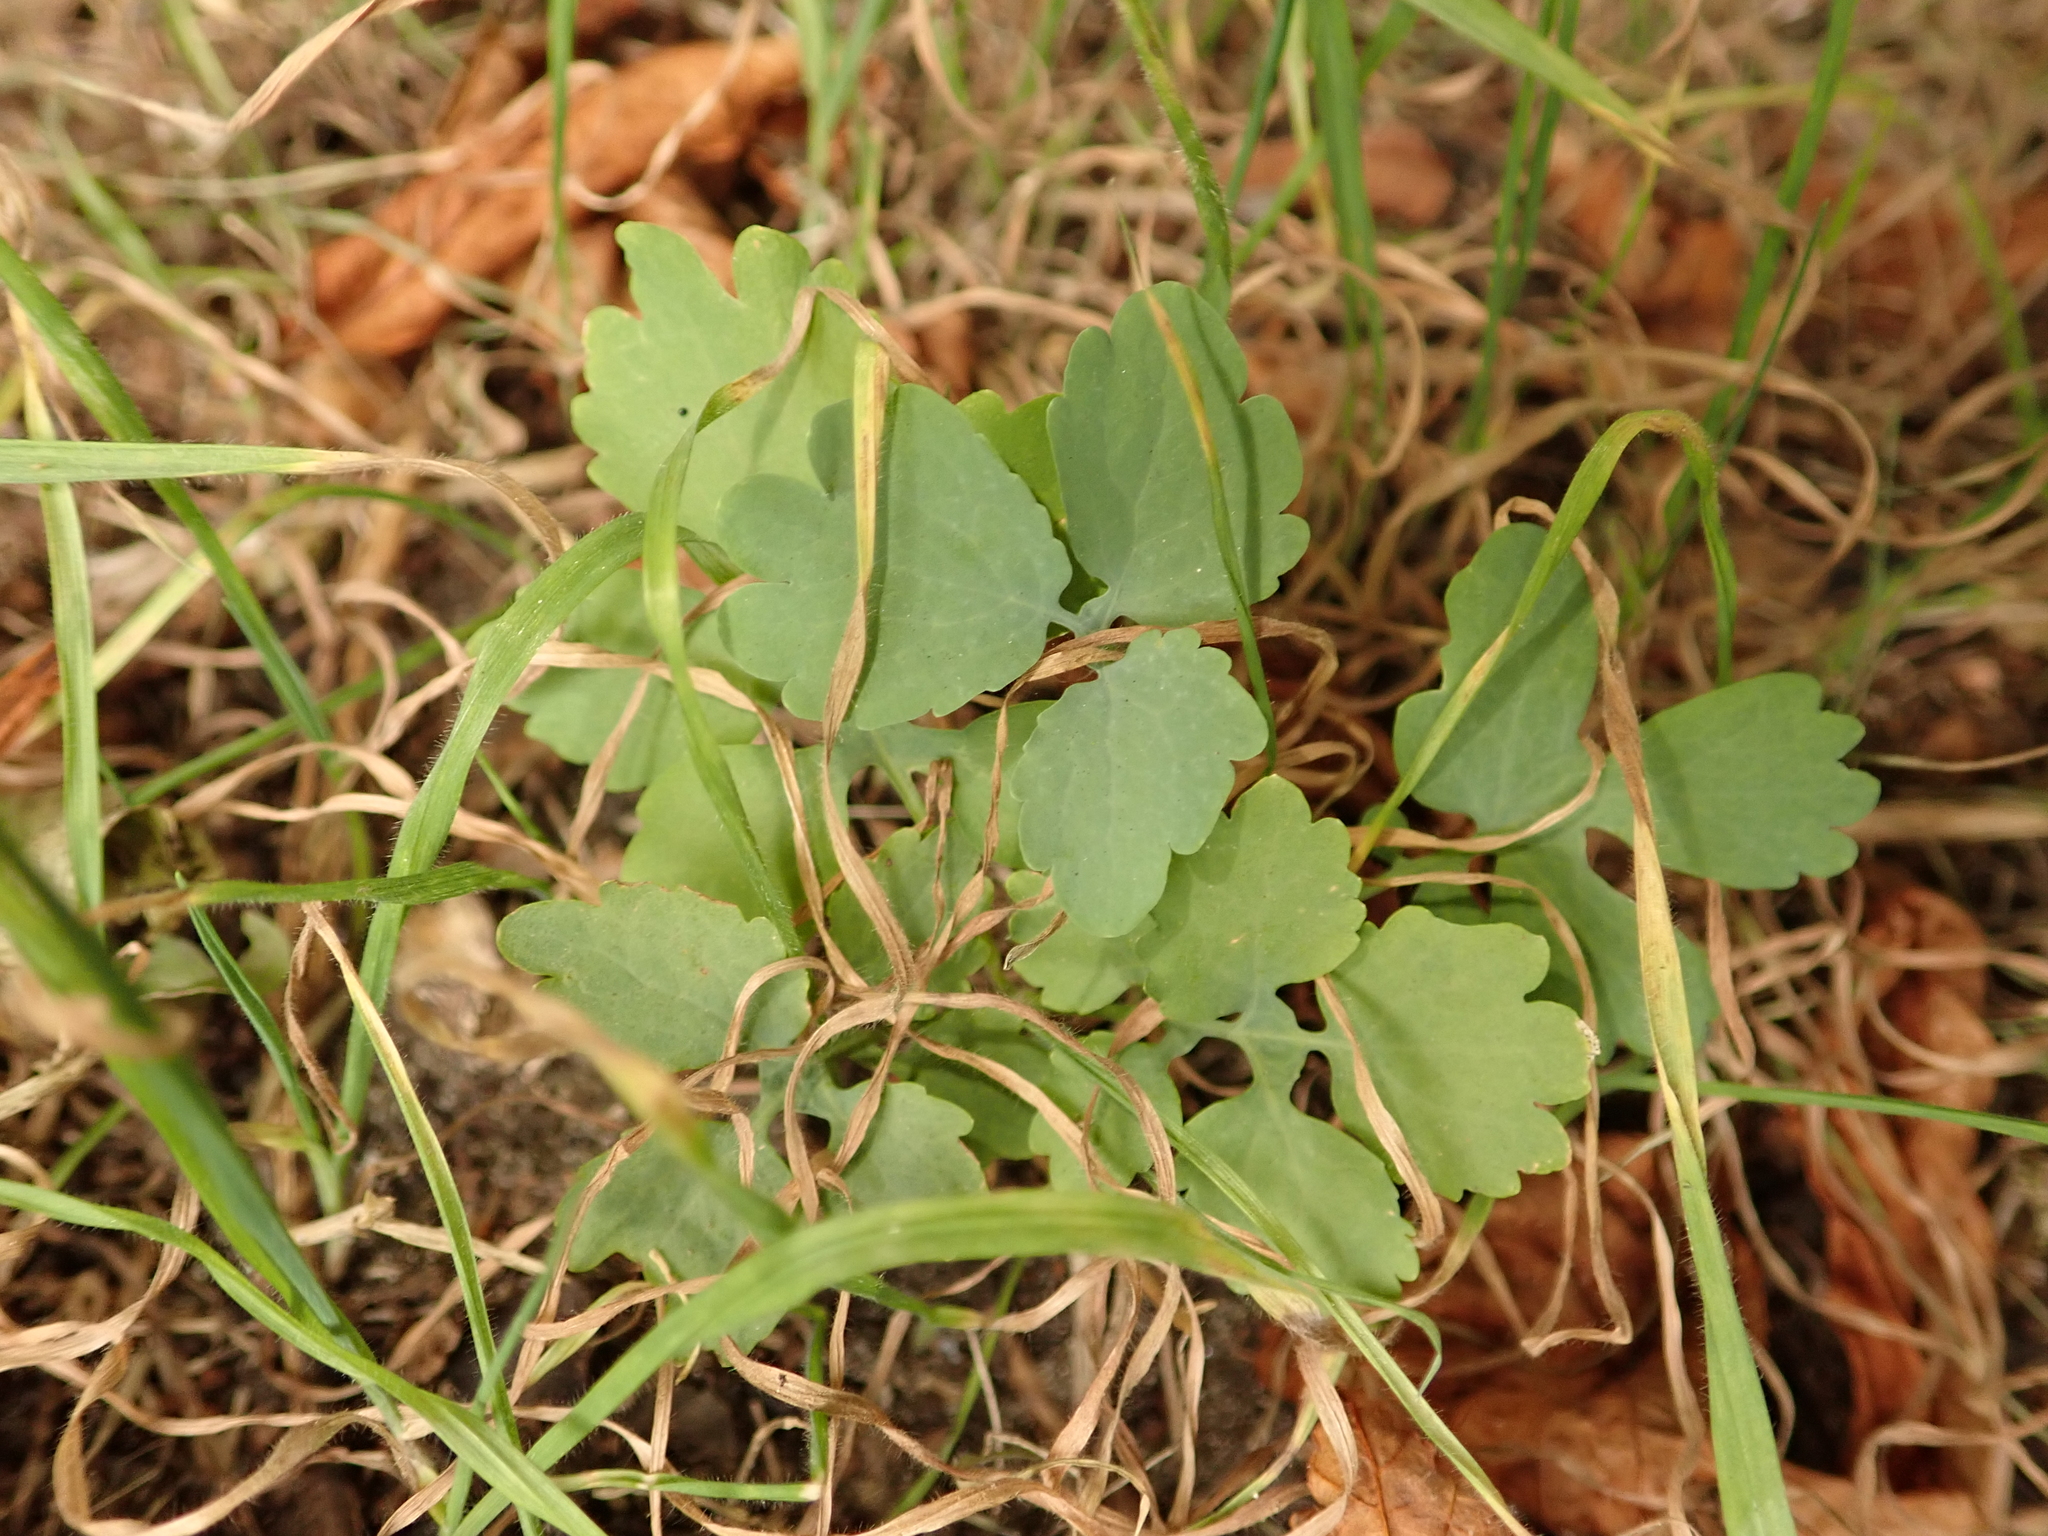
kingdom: Plantae
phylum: Tracheophyta
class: Magnoliopsida
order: Ranunculales
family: Papaveraceae
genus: Chelidonium
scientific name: Chelidonium majus
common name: Greater celandine
